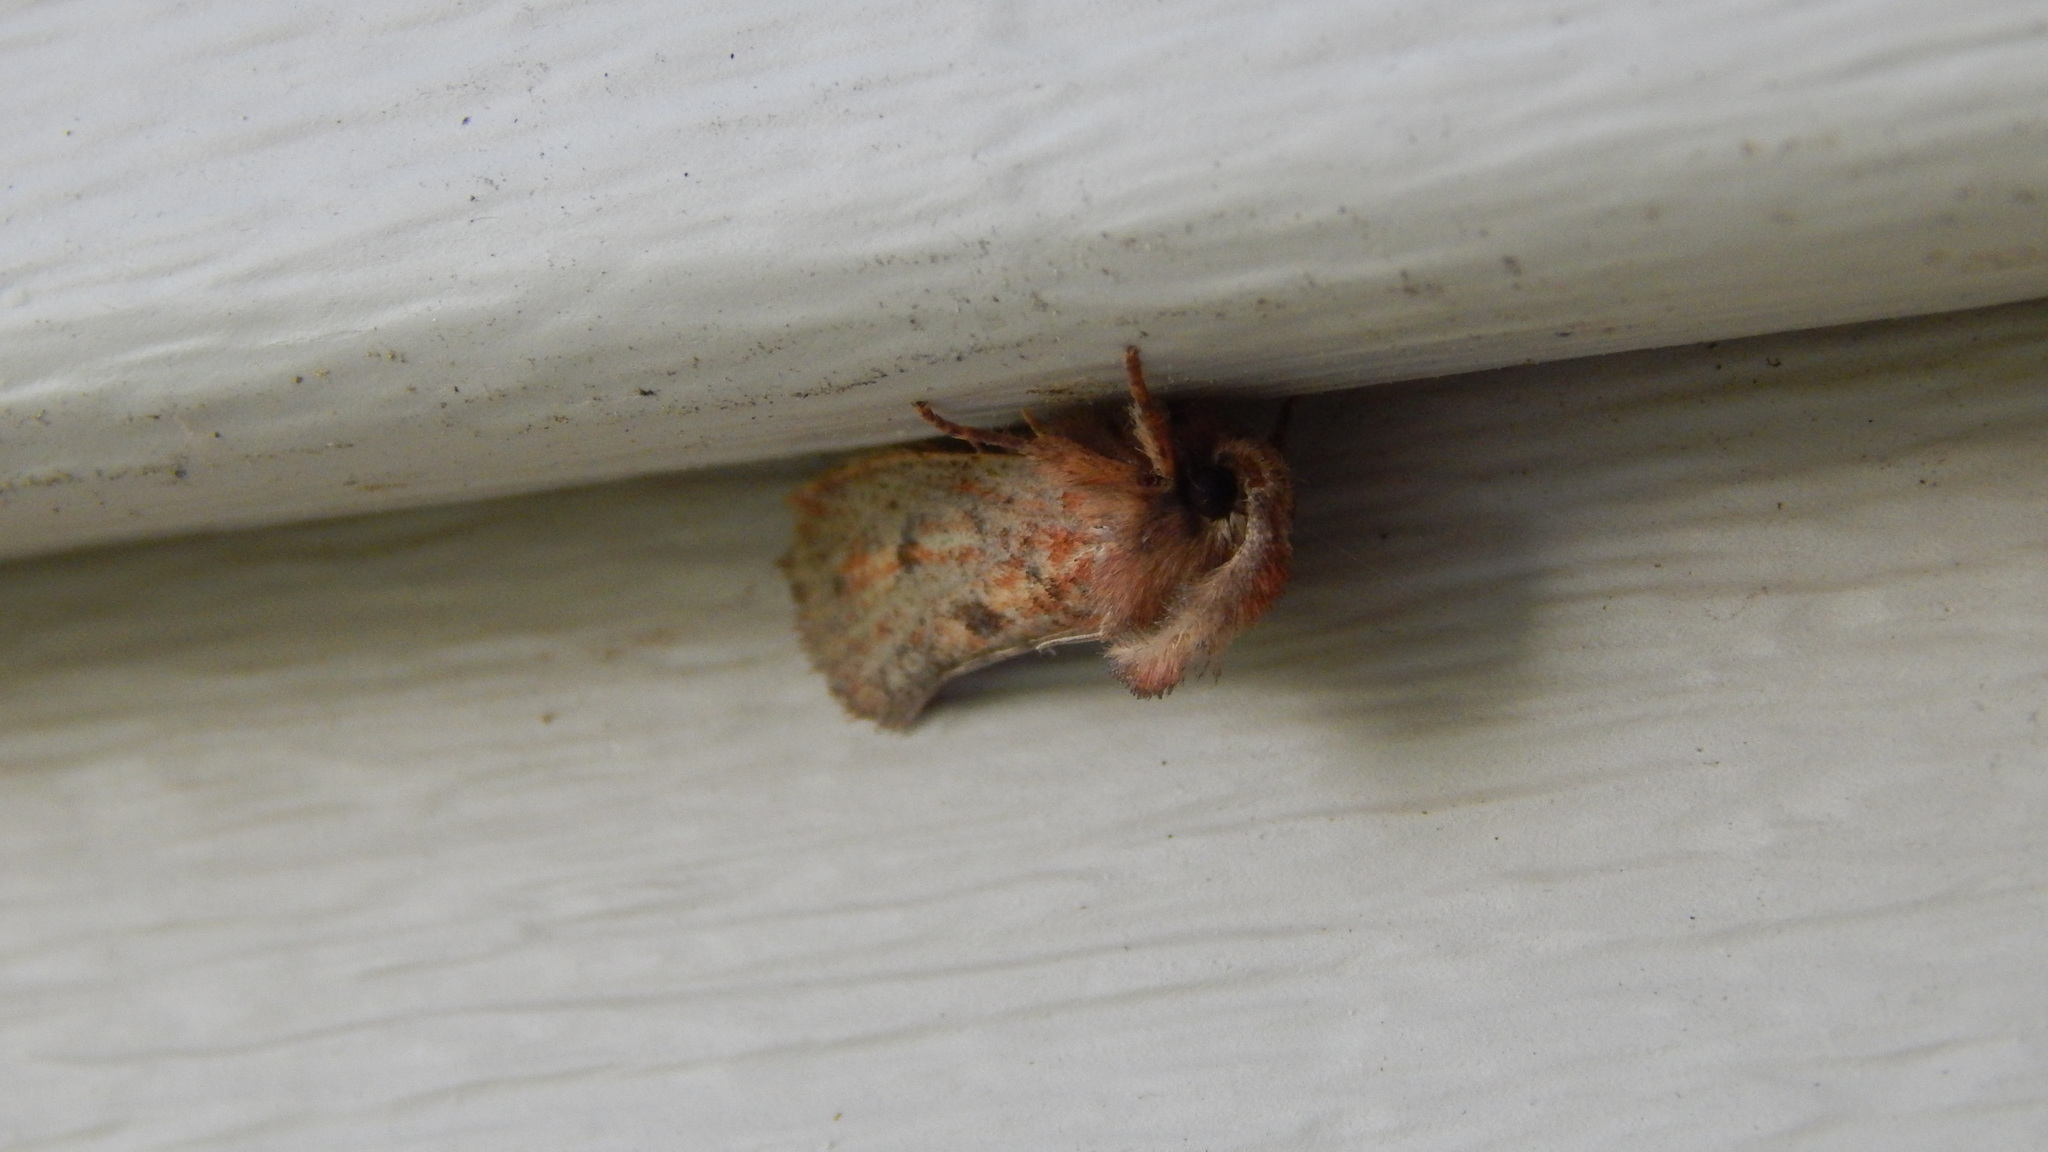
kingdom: Animalia
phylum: Arthropoda
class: Insecta
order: Lepidoptera
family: Tineidae
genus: Acrolophus
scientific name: Acrolophus plumifrontella
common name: Eastern grass tubeworm moth
